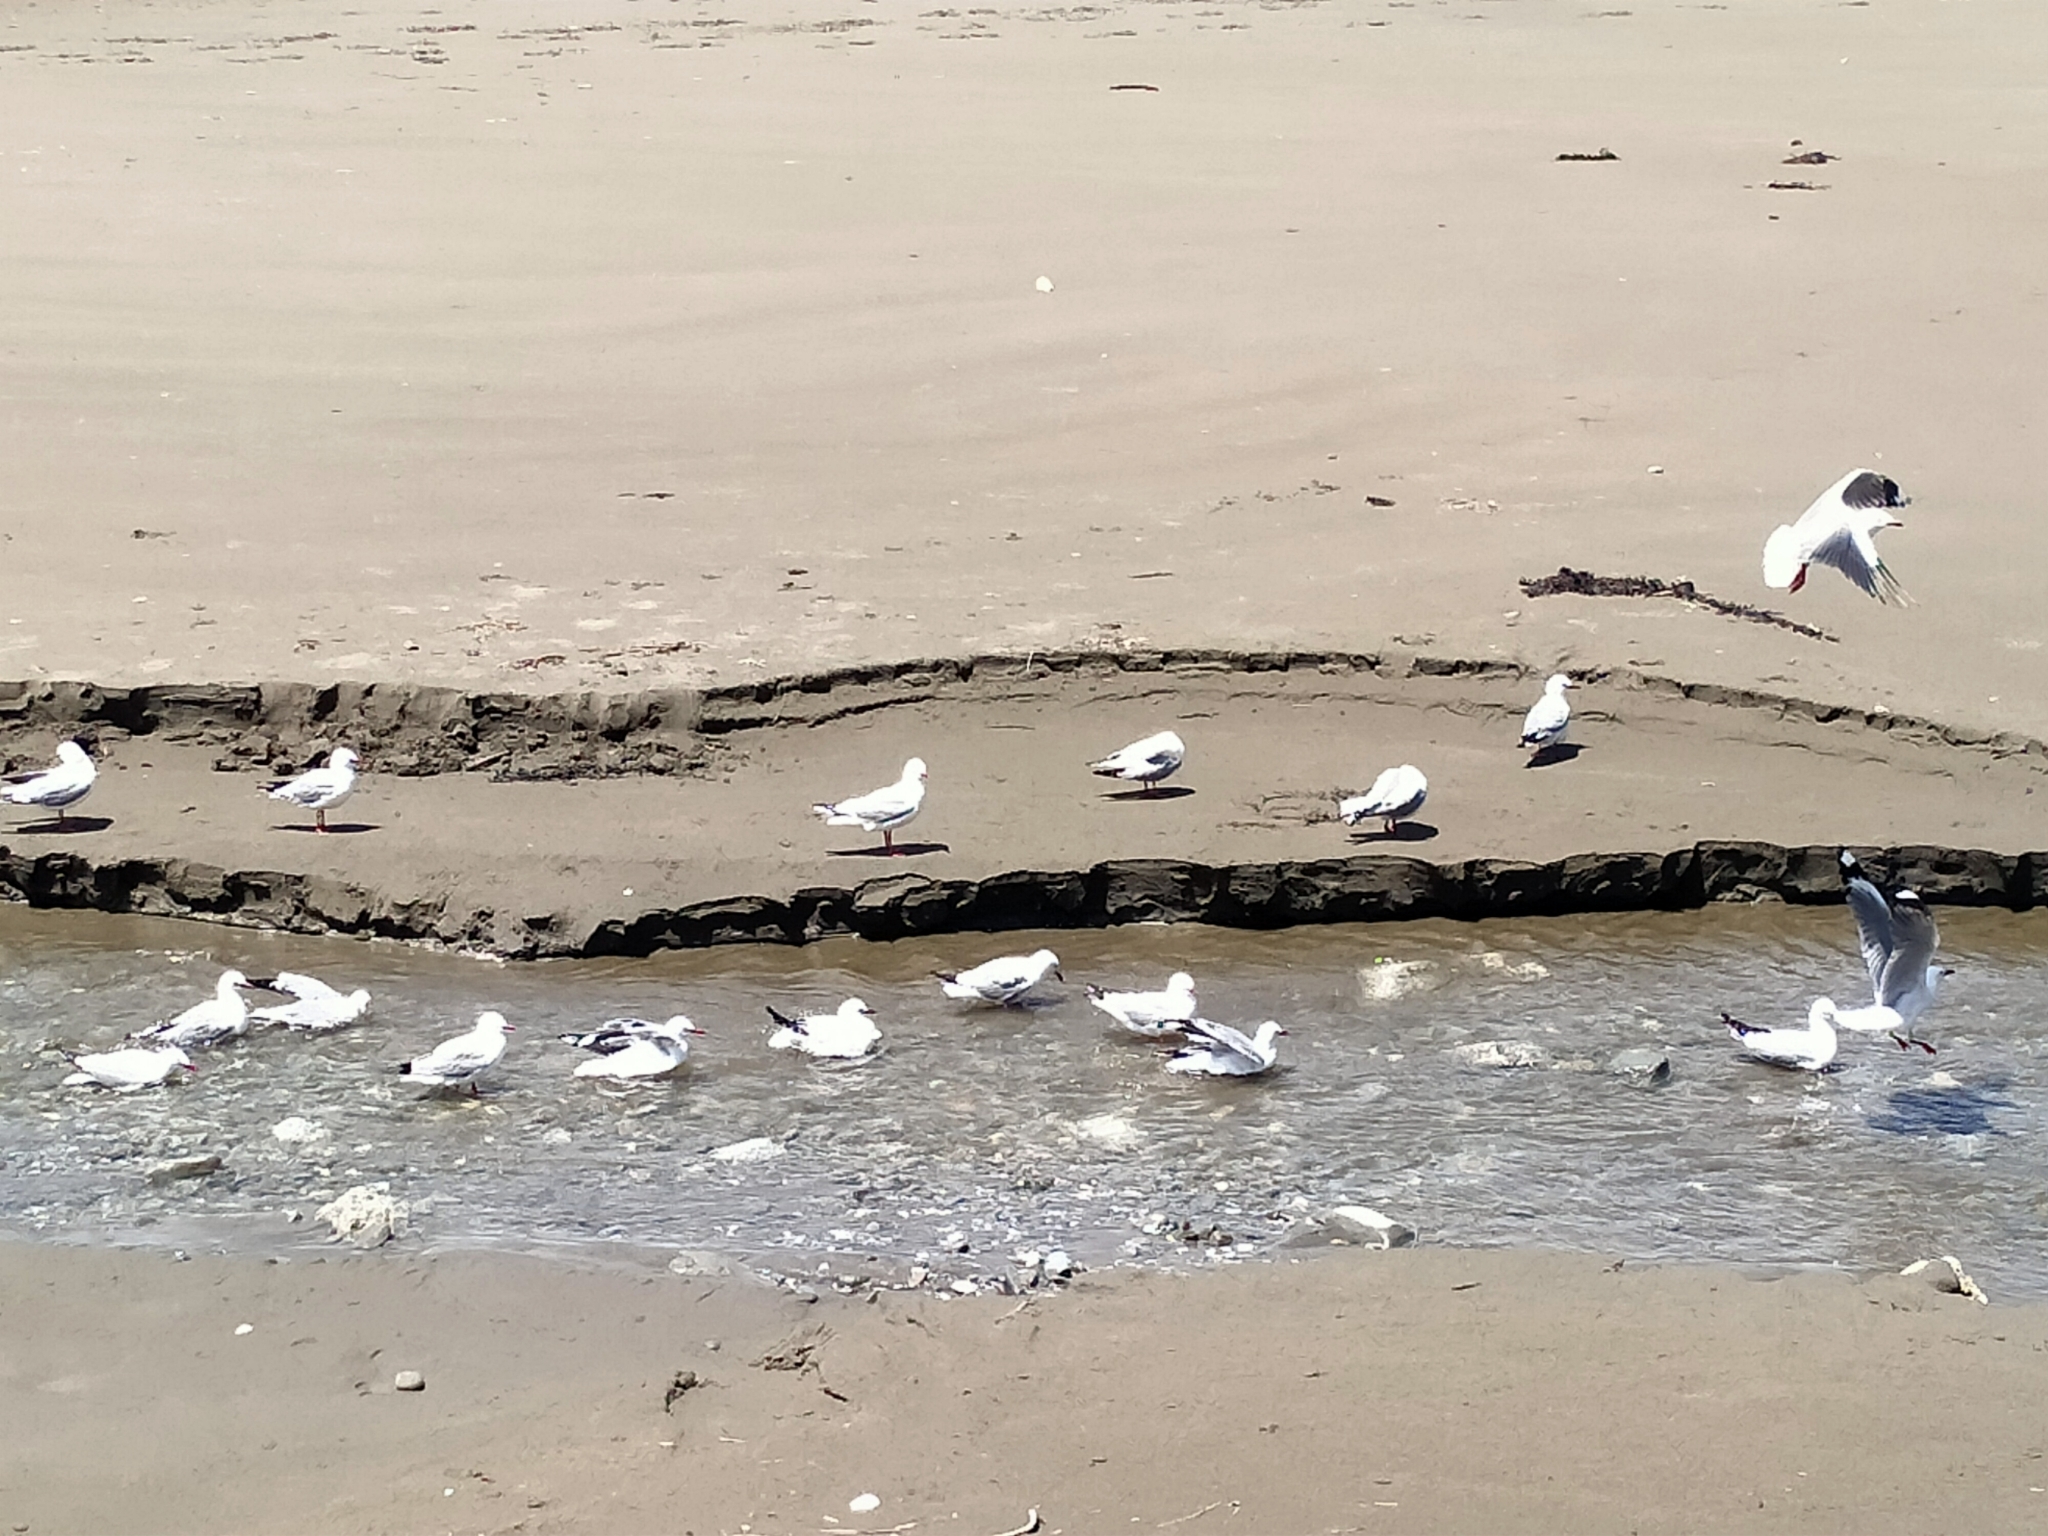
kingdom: Animalia
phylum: Chordata
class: Aves
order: Charadriiformes
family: Laridae
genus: Chroicocephalus
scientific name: Chroicocephalus novaehollandiae
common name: Silver gull
